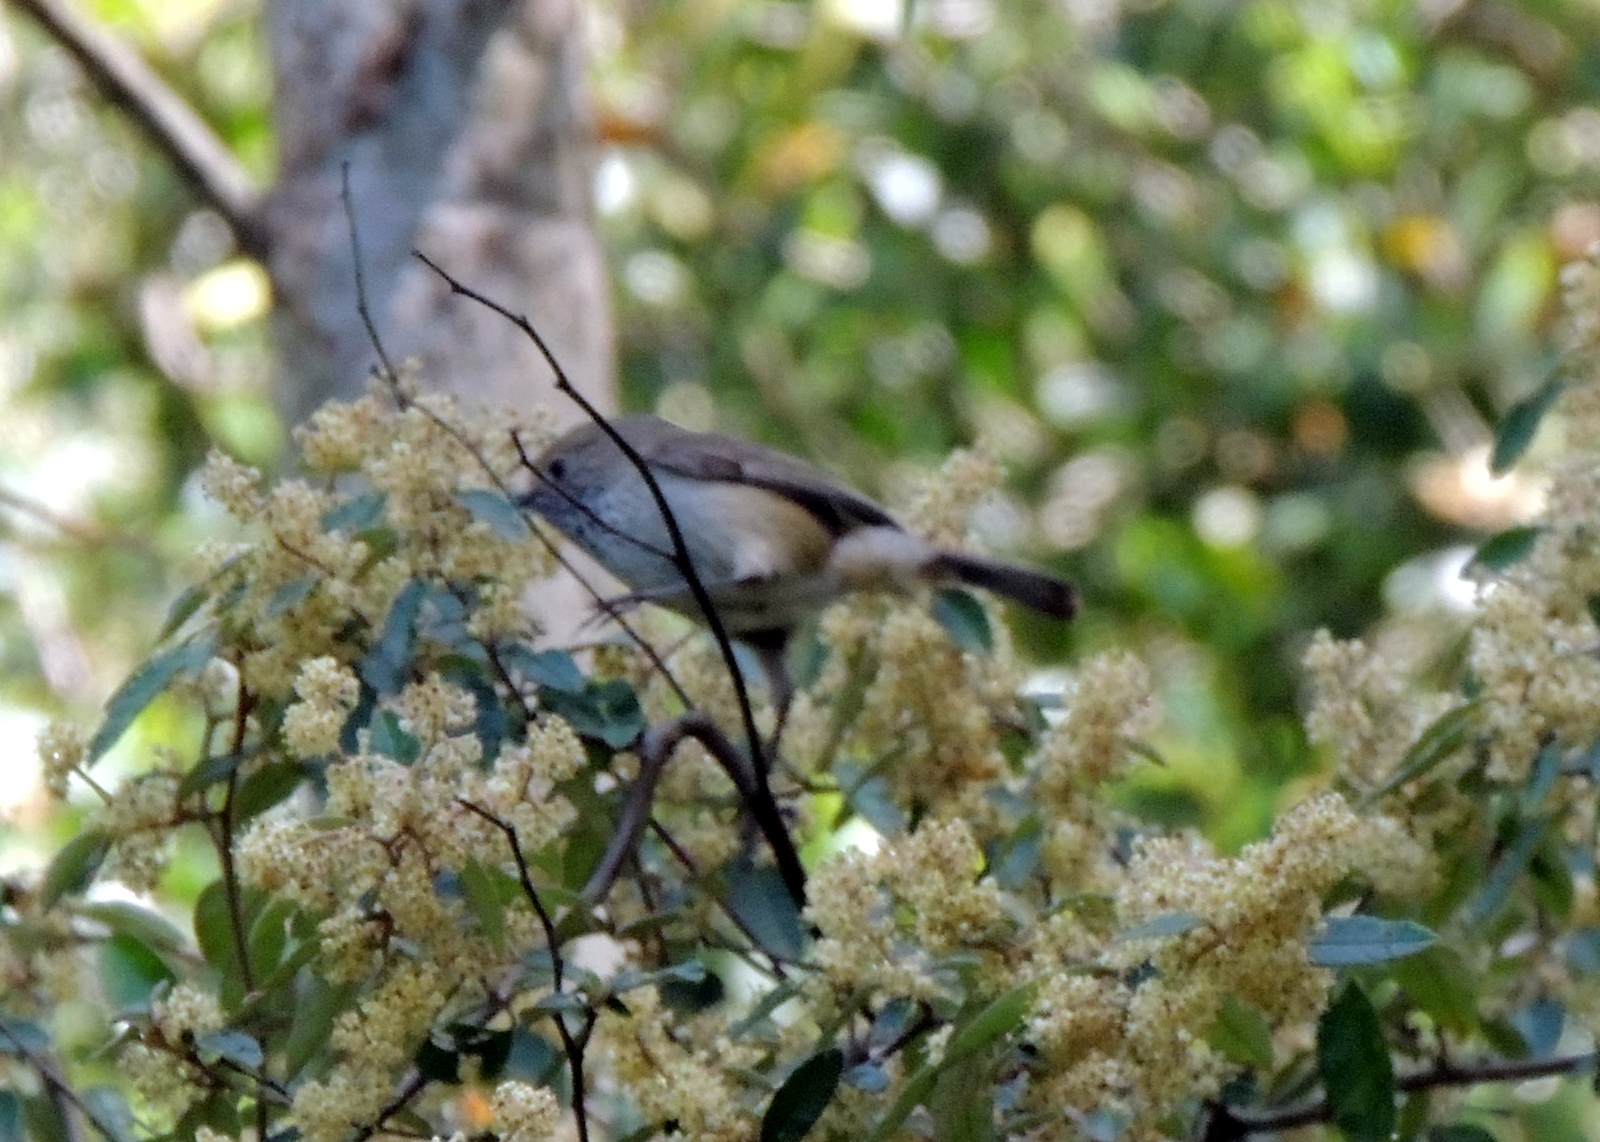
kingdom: Animalia
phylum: Chordata
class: Aves
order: Passeriformes
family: Acanthizidae
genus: Acanthiza
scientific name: Acanthiza pusilla
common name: Brown thornbill
